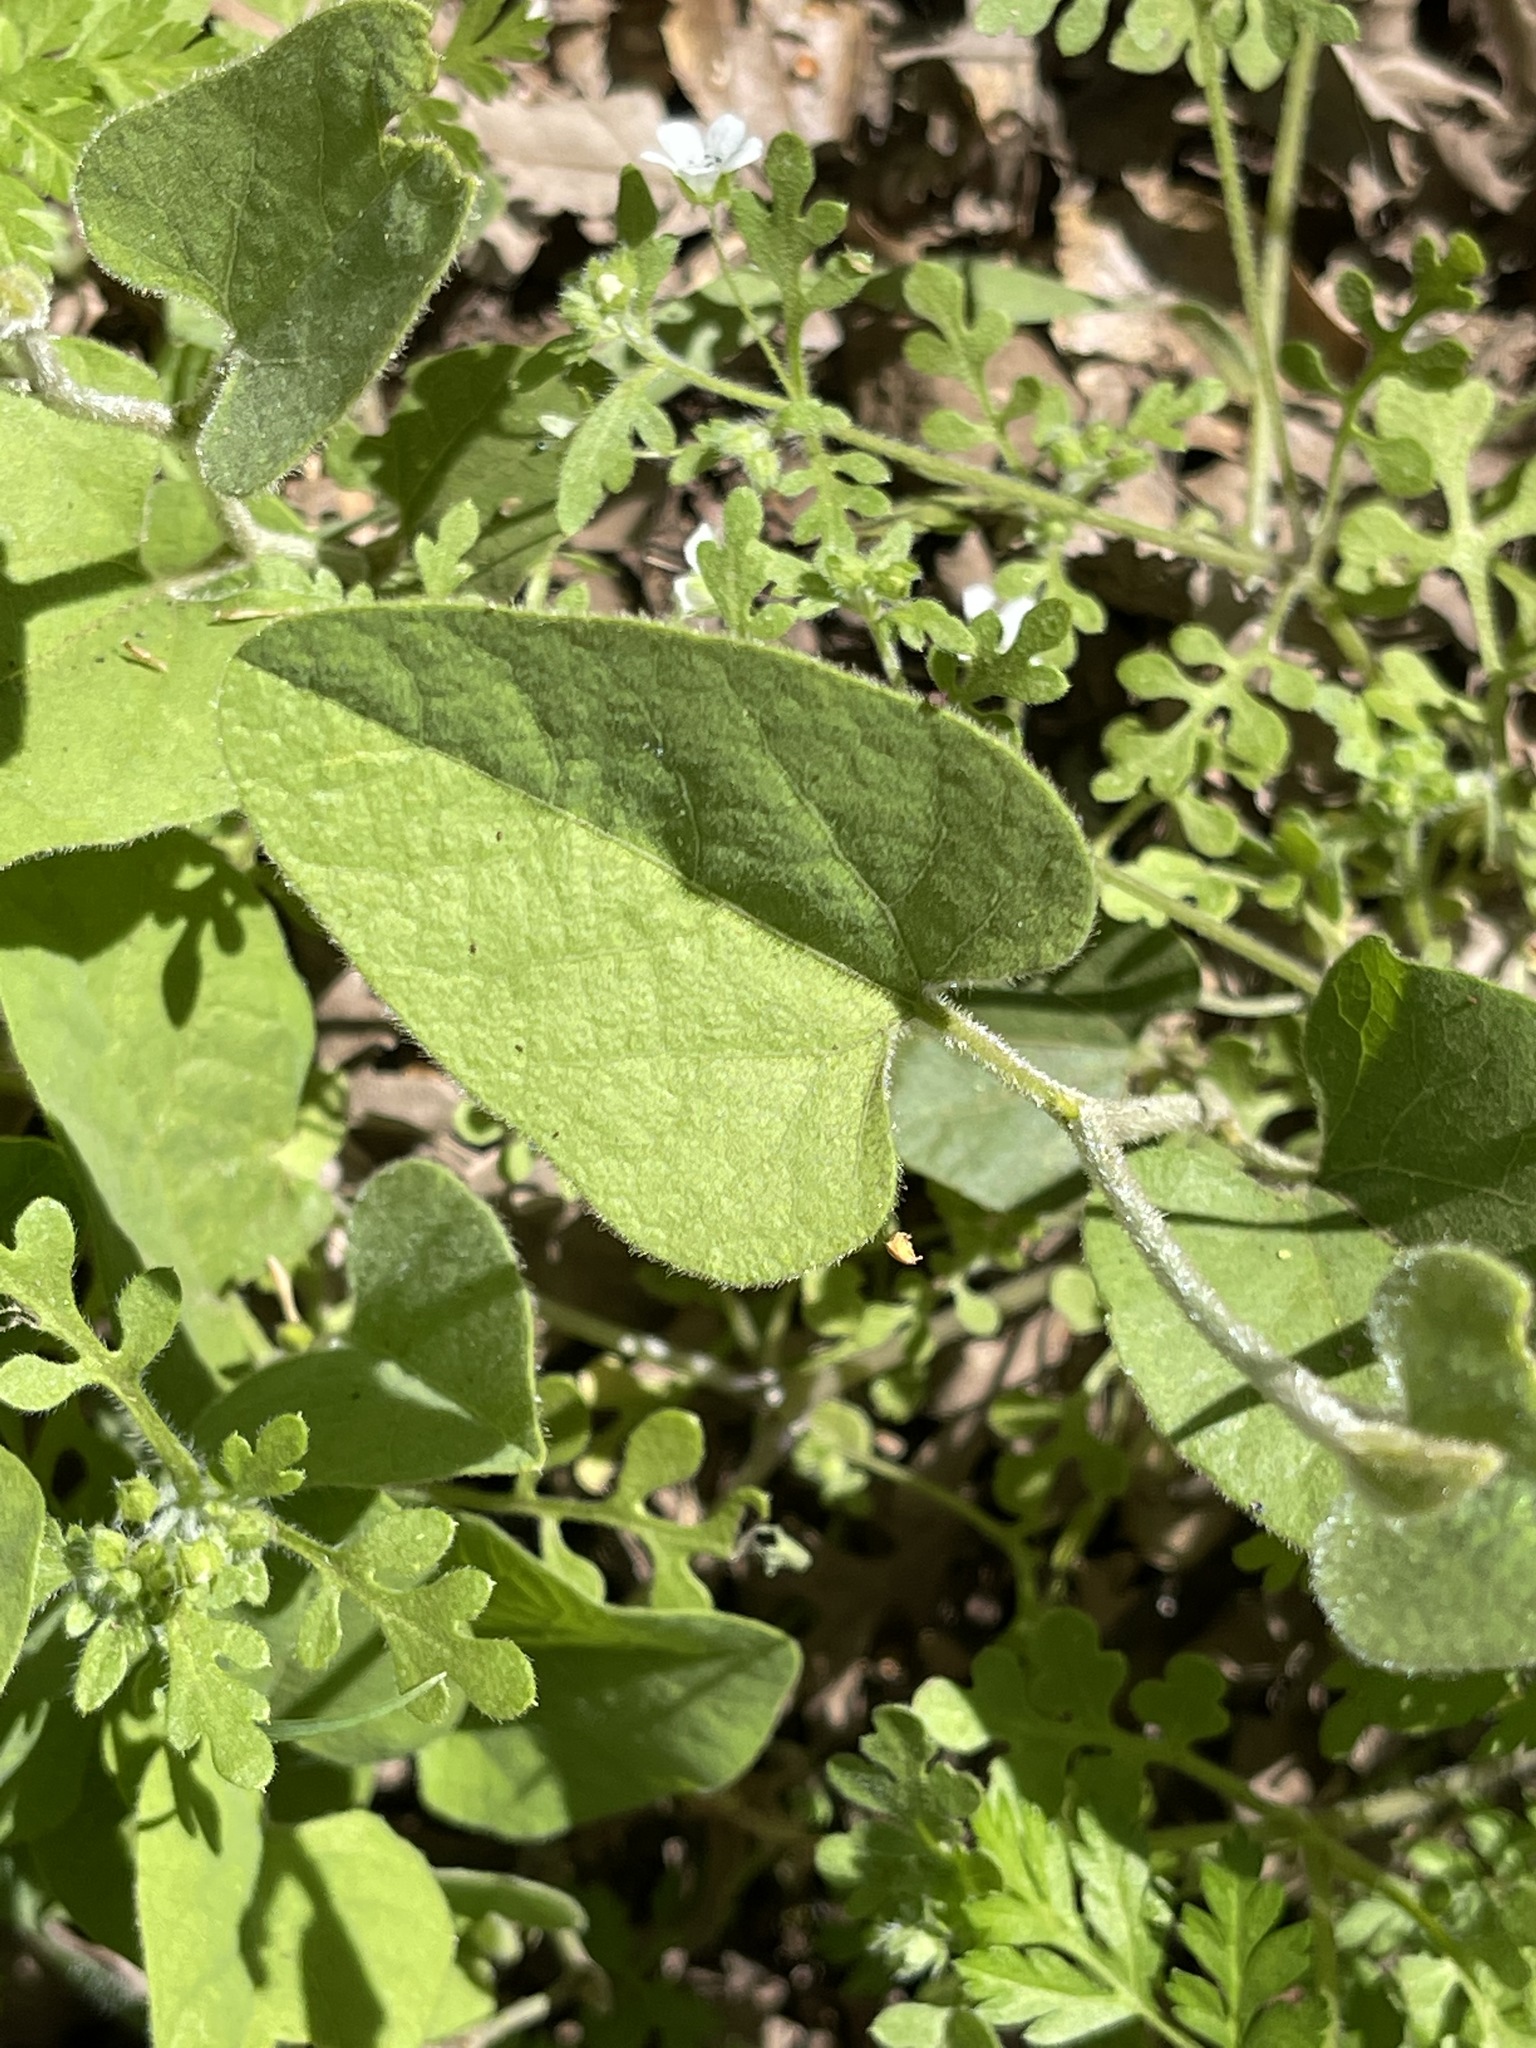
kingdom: Plantae
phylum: Tracheophyta
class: Magnoliopsida
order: Piperales
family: Aristolochiaceae
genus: Isotrema
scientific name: Isotrema californicum
